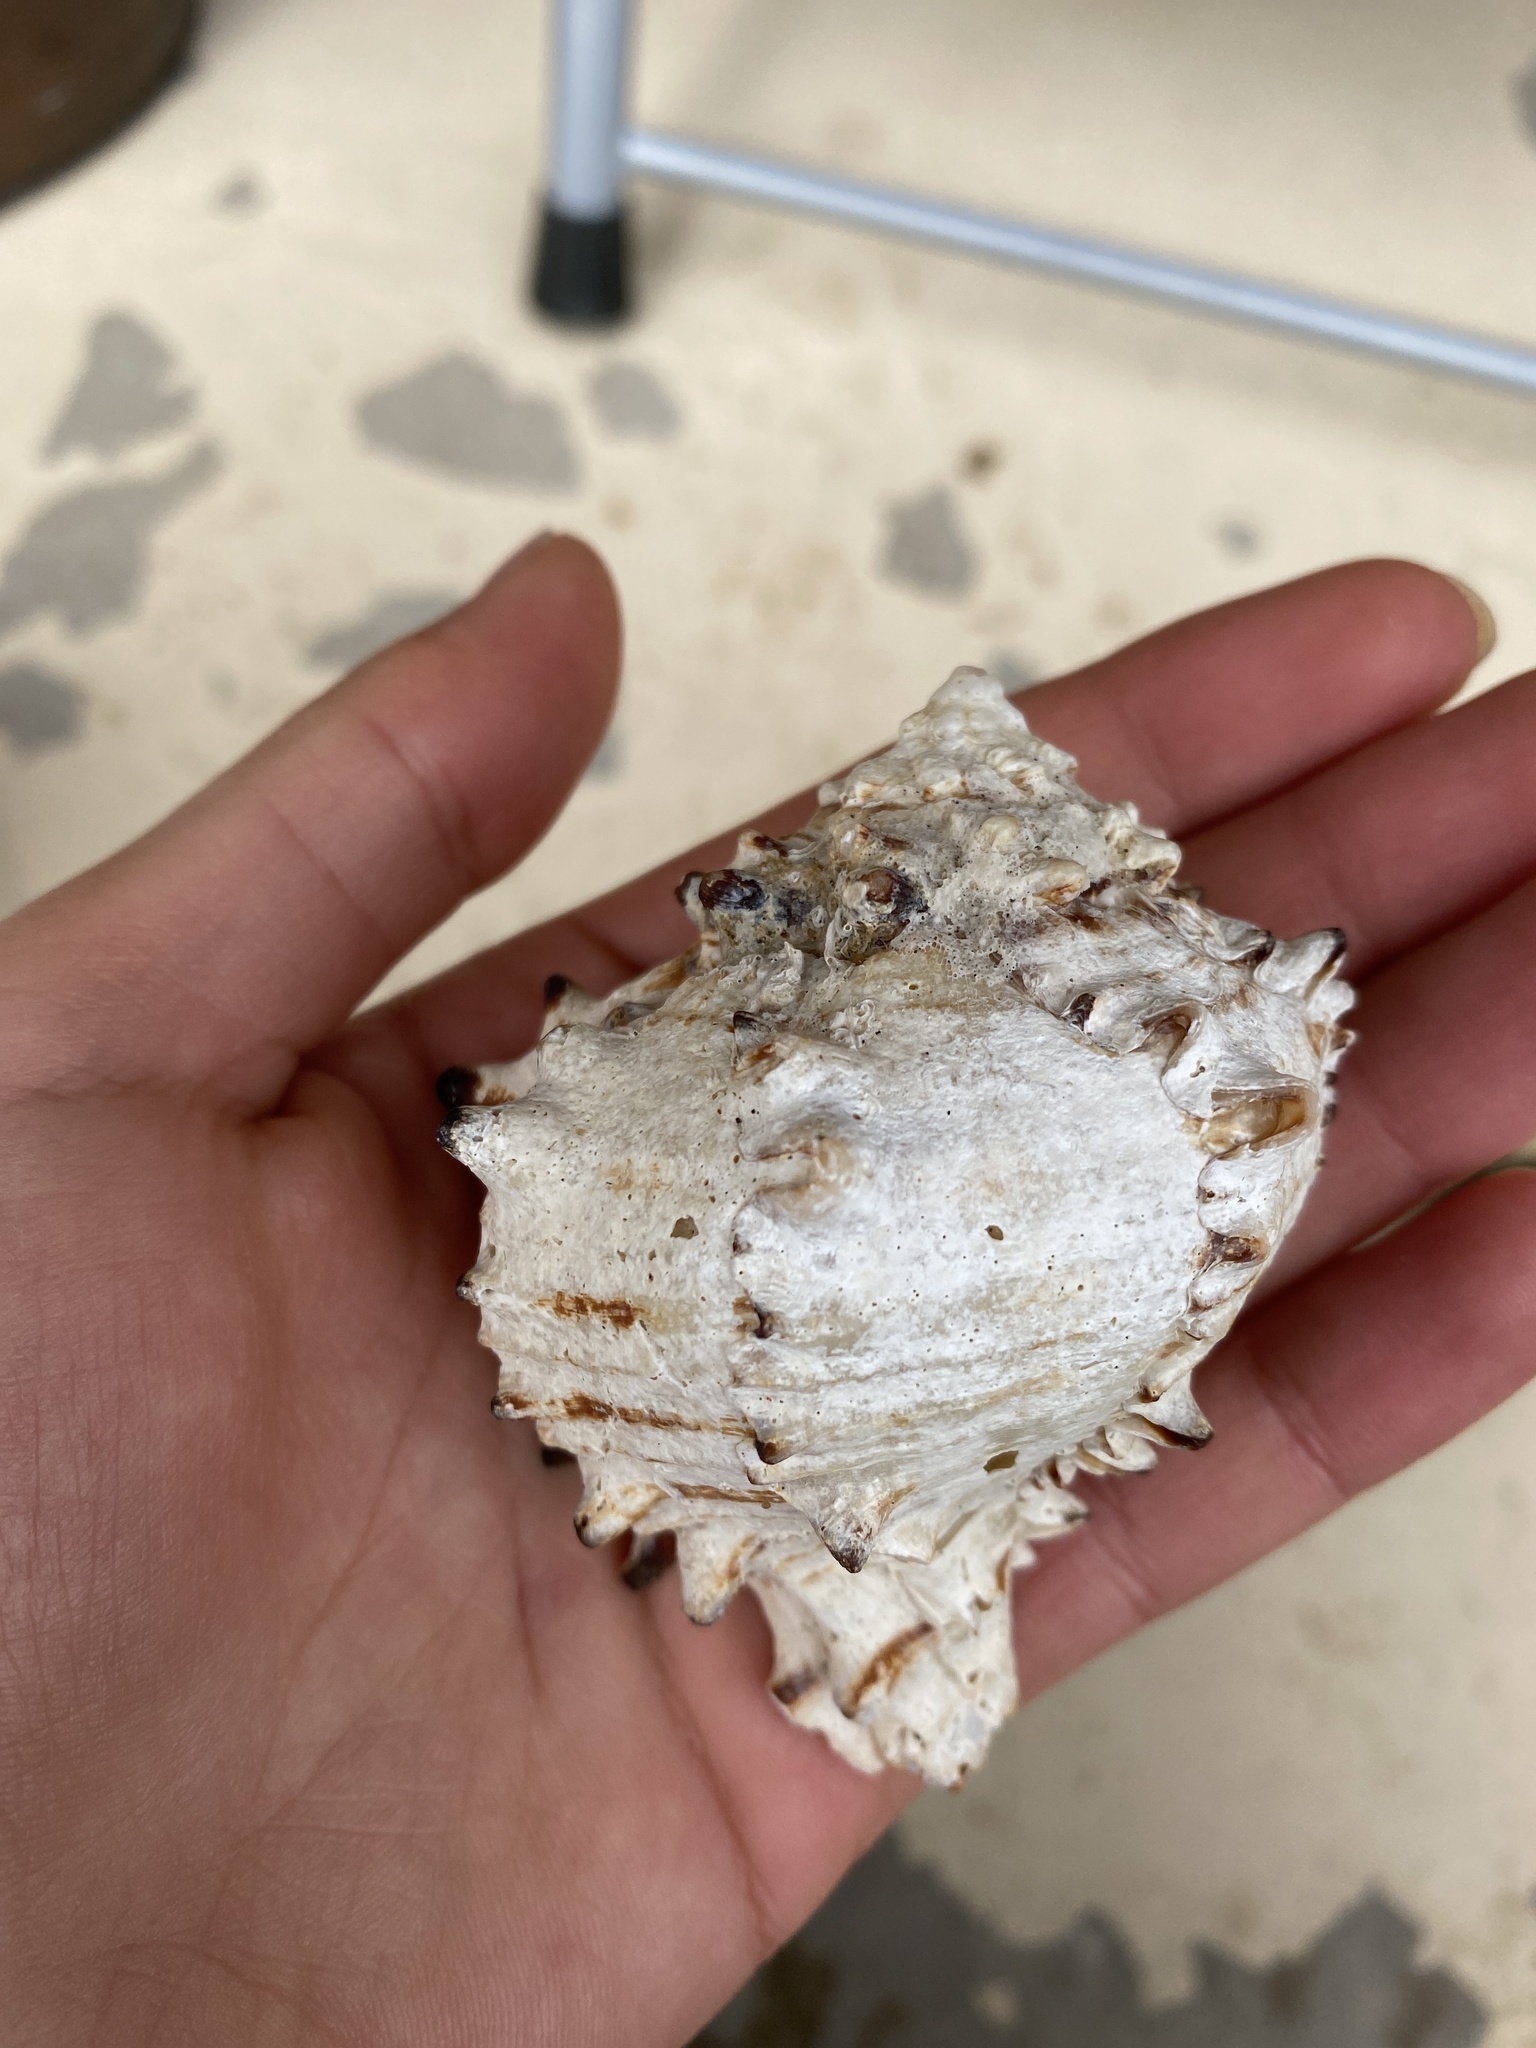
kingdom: Animalia
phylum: Mollusca
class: Gastropoda
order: Neogastropoda
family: Muricidae
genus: Muricanthus
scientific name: Muricanthus nigritus
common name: Black murex
